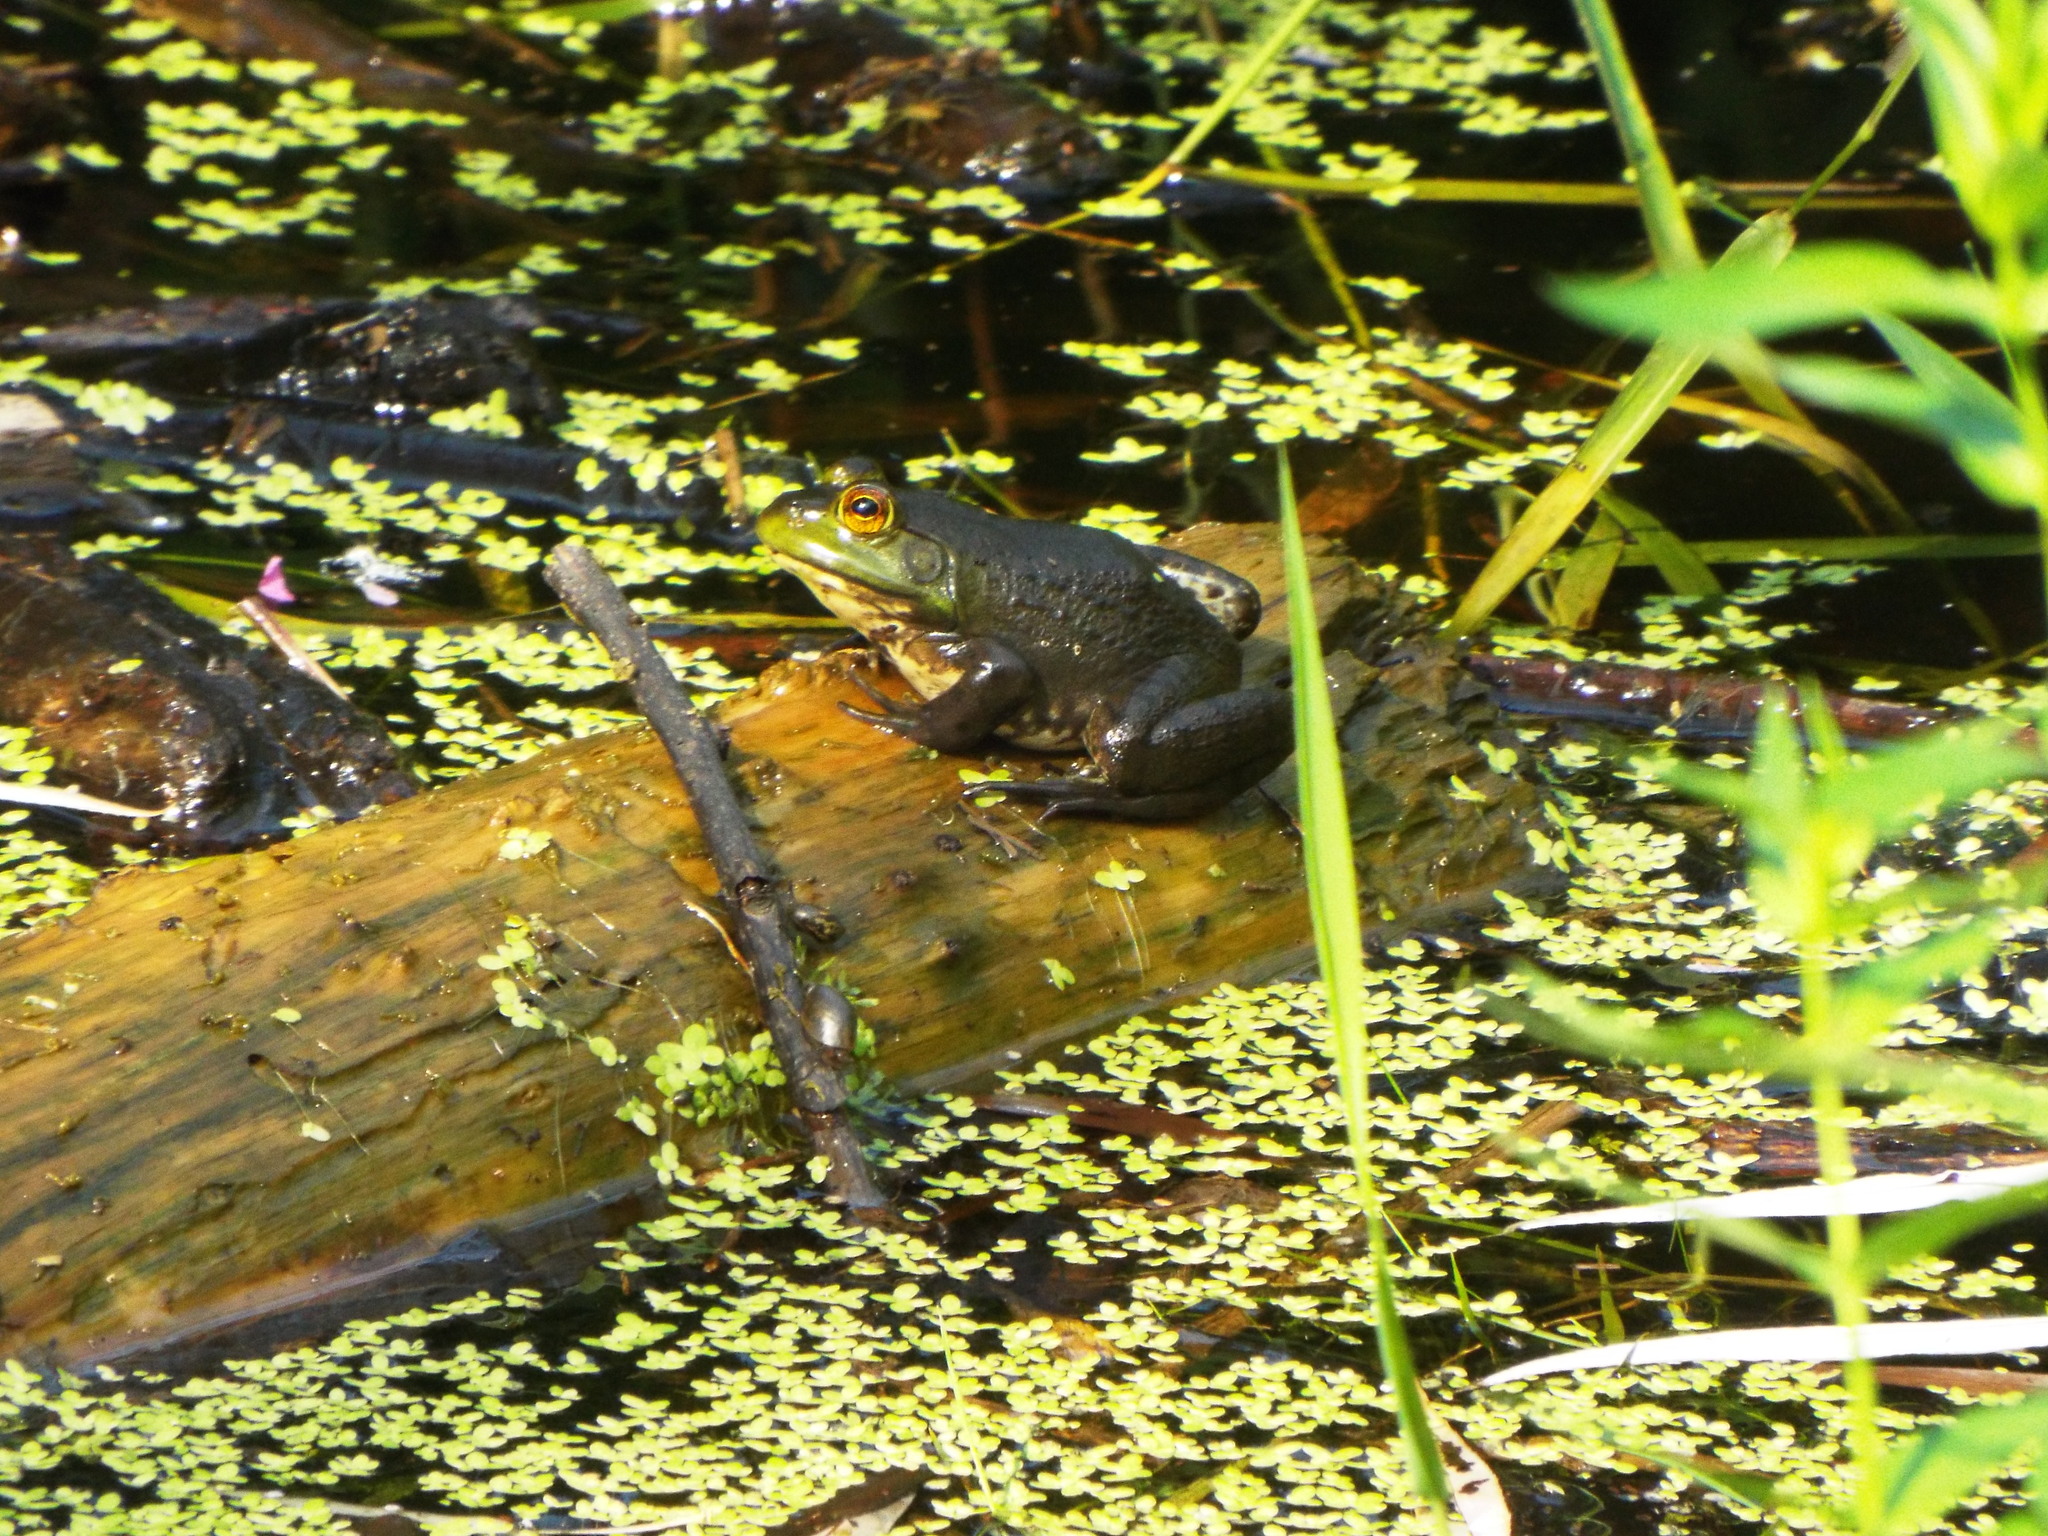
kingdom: Animalia
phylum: Chordata
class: Amphibia
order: Anura
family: Ranidae
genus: Lithobates
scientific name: Lithobates catesbeianus
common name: American bullfrog
